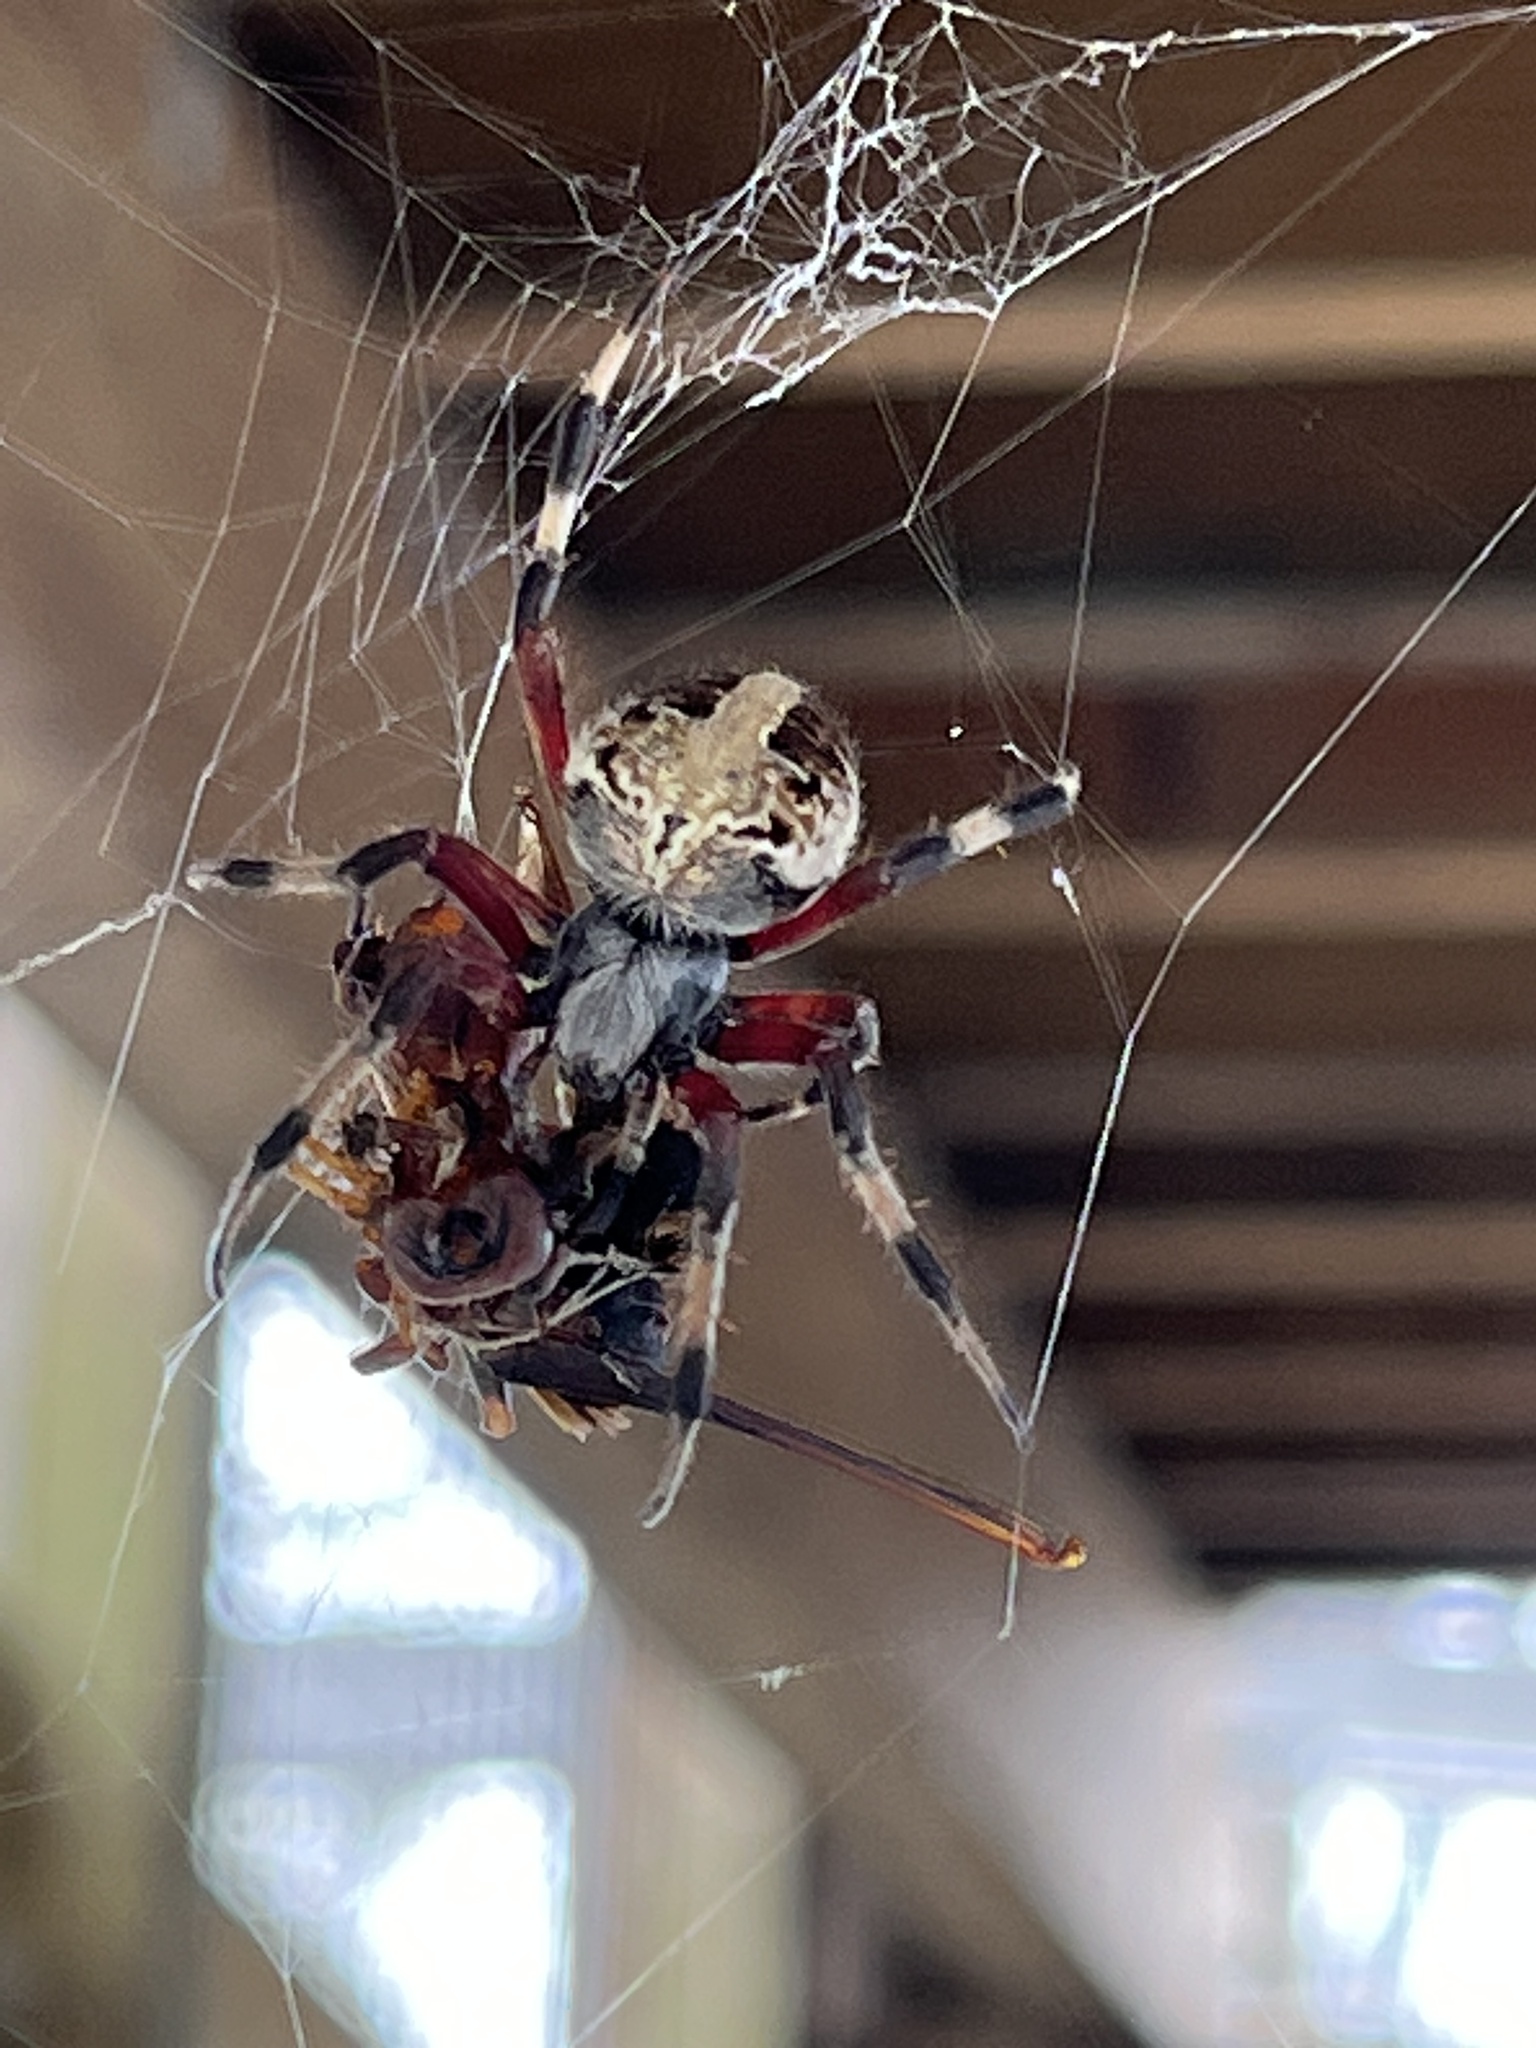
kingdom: Animalia
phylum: Arthropoda
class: Arachnida
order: Araneae
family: Araneidae
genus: Neoscona
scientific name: Neoscona domiciliorum
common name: Red-femured spotted orbweaver
